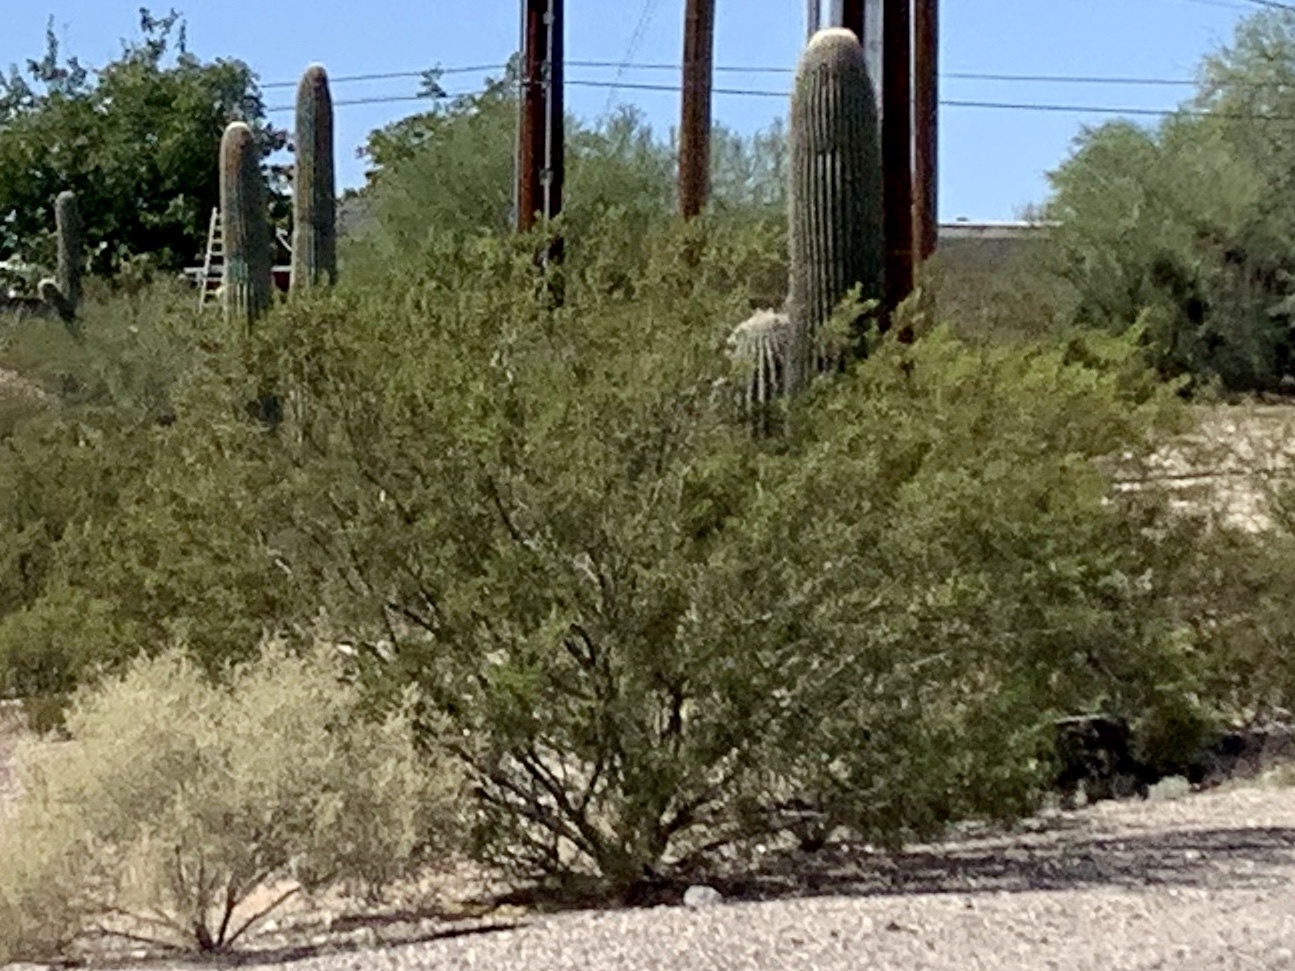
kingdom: Plantae
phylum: Tracheophyta
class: Magnoliopsida
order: Zygophyllales
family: Zygophyllaceae
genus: Larrea
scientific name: Larrea tridentata
